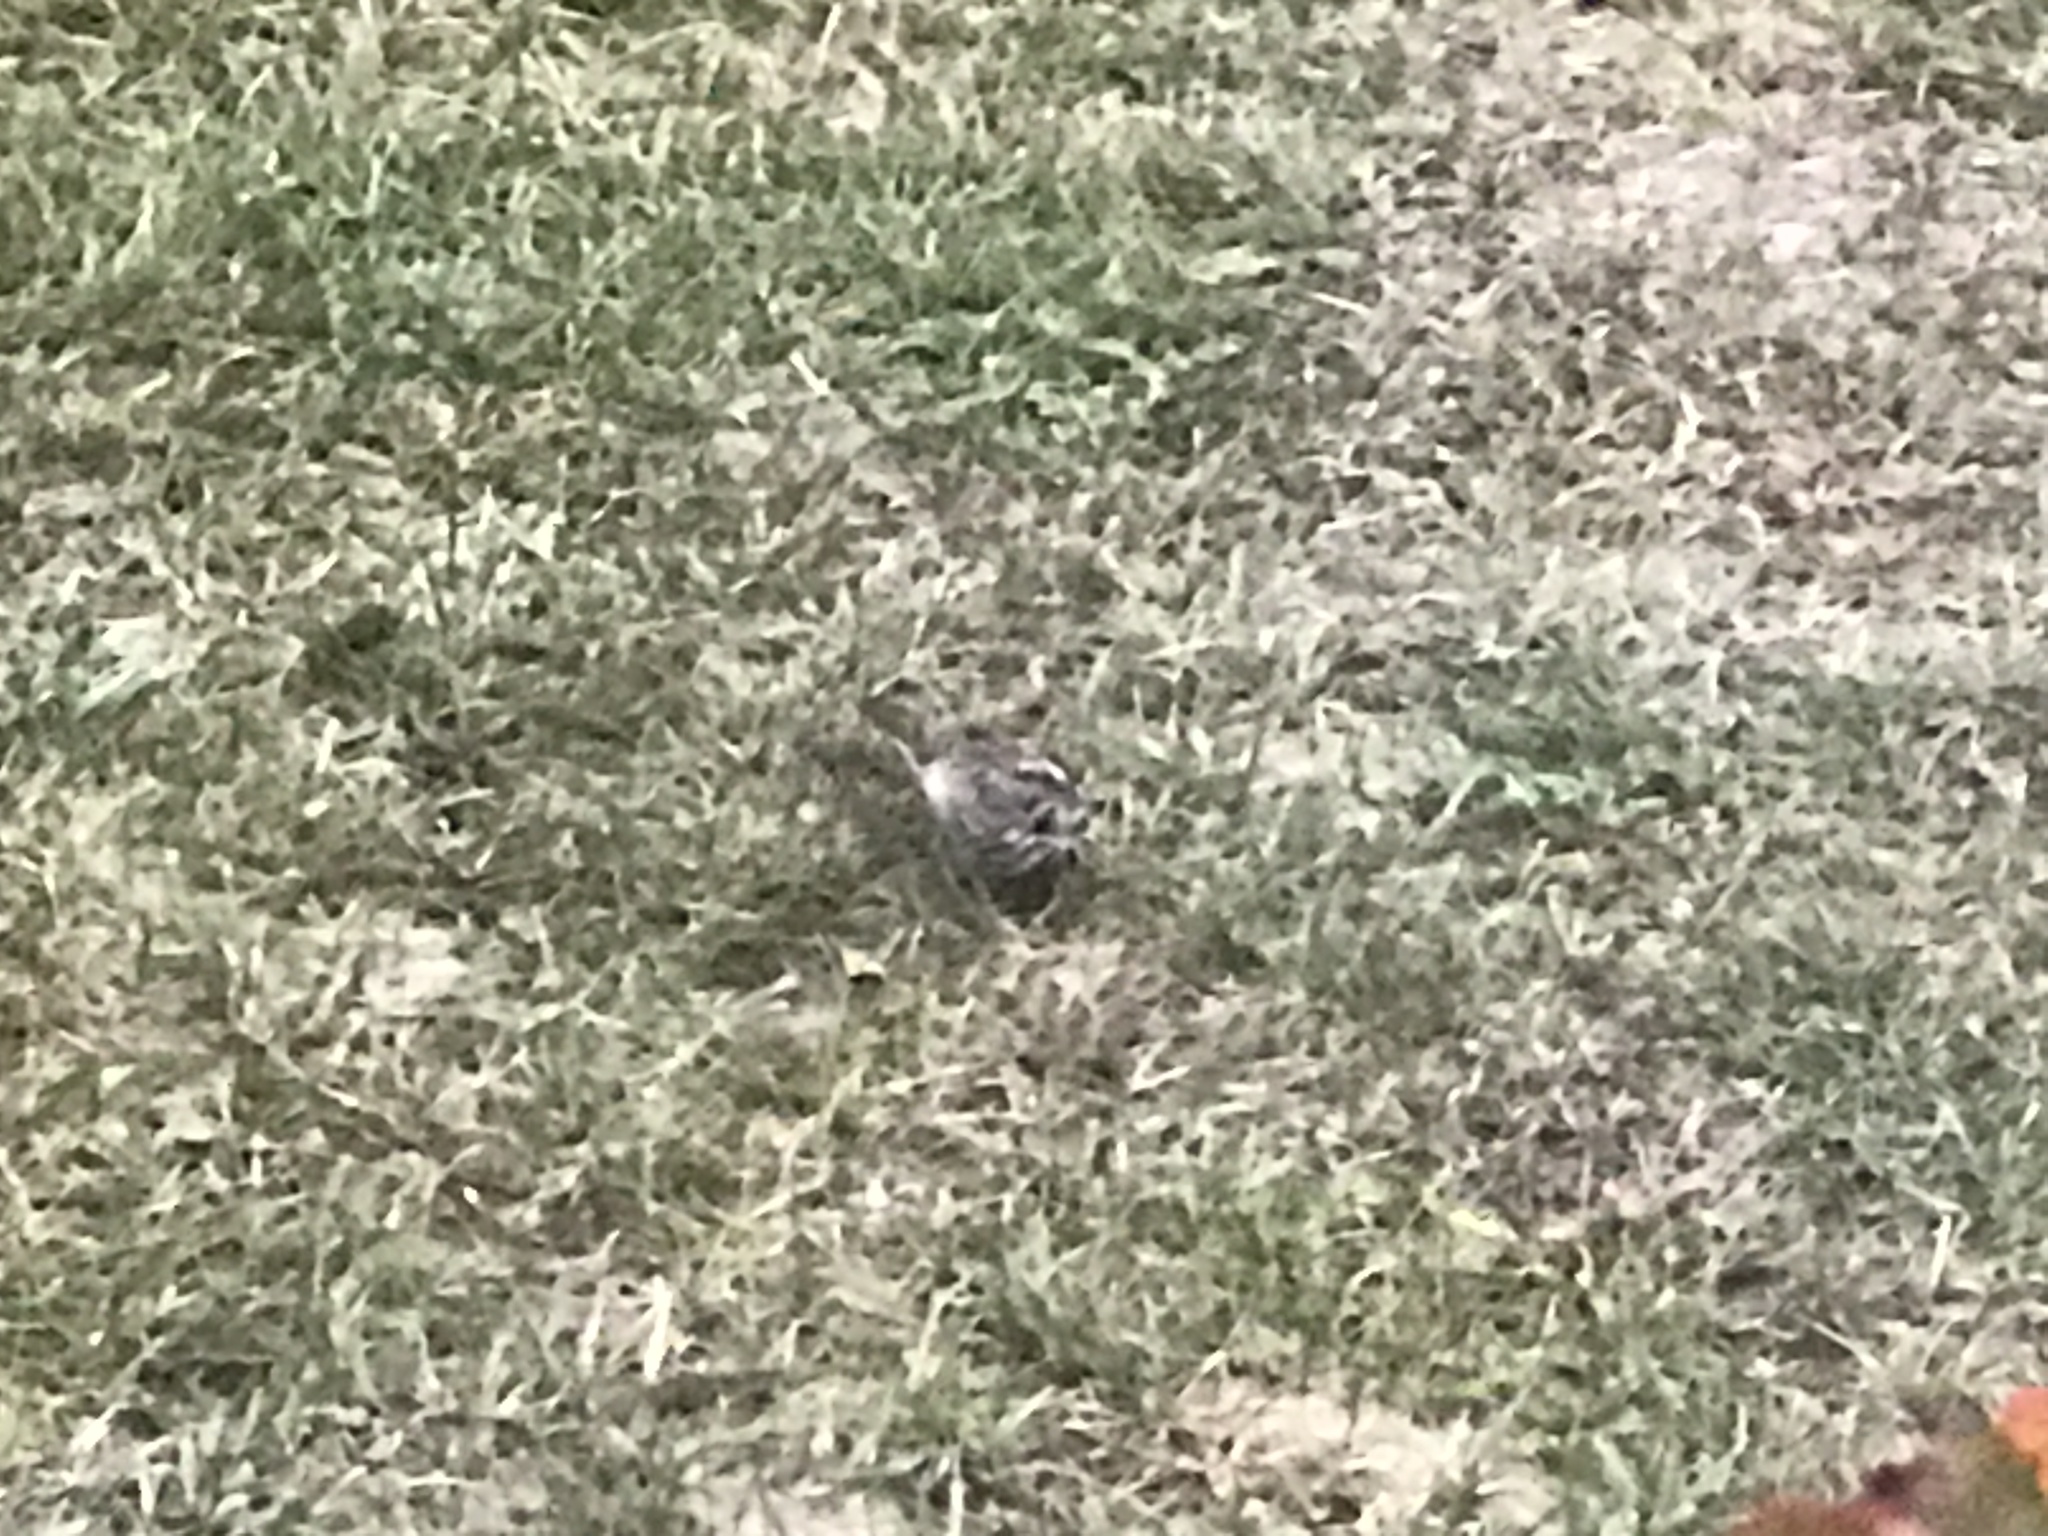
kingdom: Animalia
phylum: Chordata
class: Aves
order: Passeriformes
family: Passerellidae
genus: Melospiza
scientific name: Melospiza melodia
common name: Song sparrow
